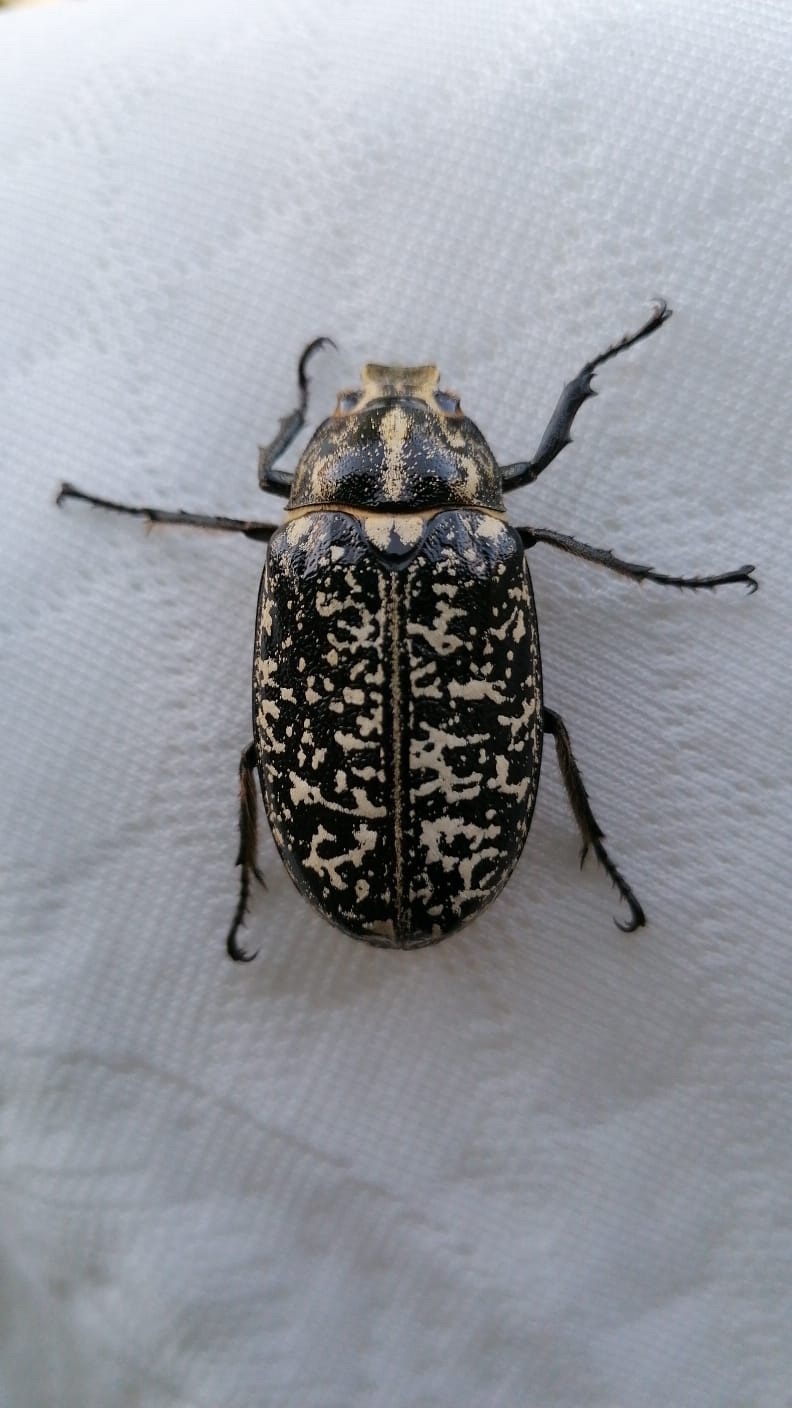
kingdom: Animalia
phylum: Arthropoda
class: Insecta
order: Coleoptera
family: Scarabaeidae
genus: Polyphylla
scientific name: Polyphylla fullo
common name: Pine chafer
